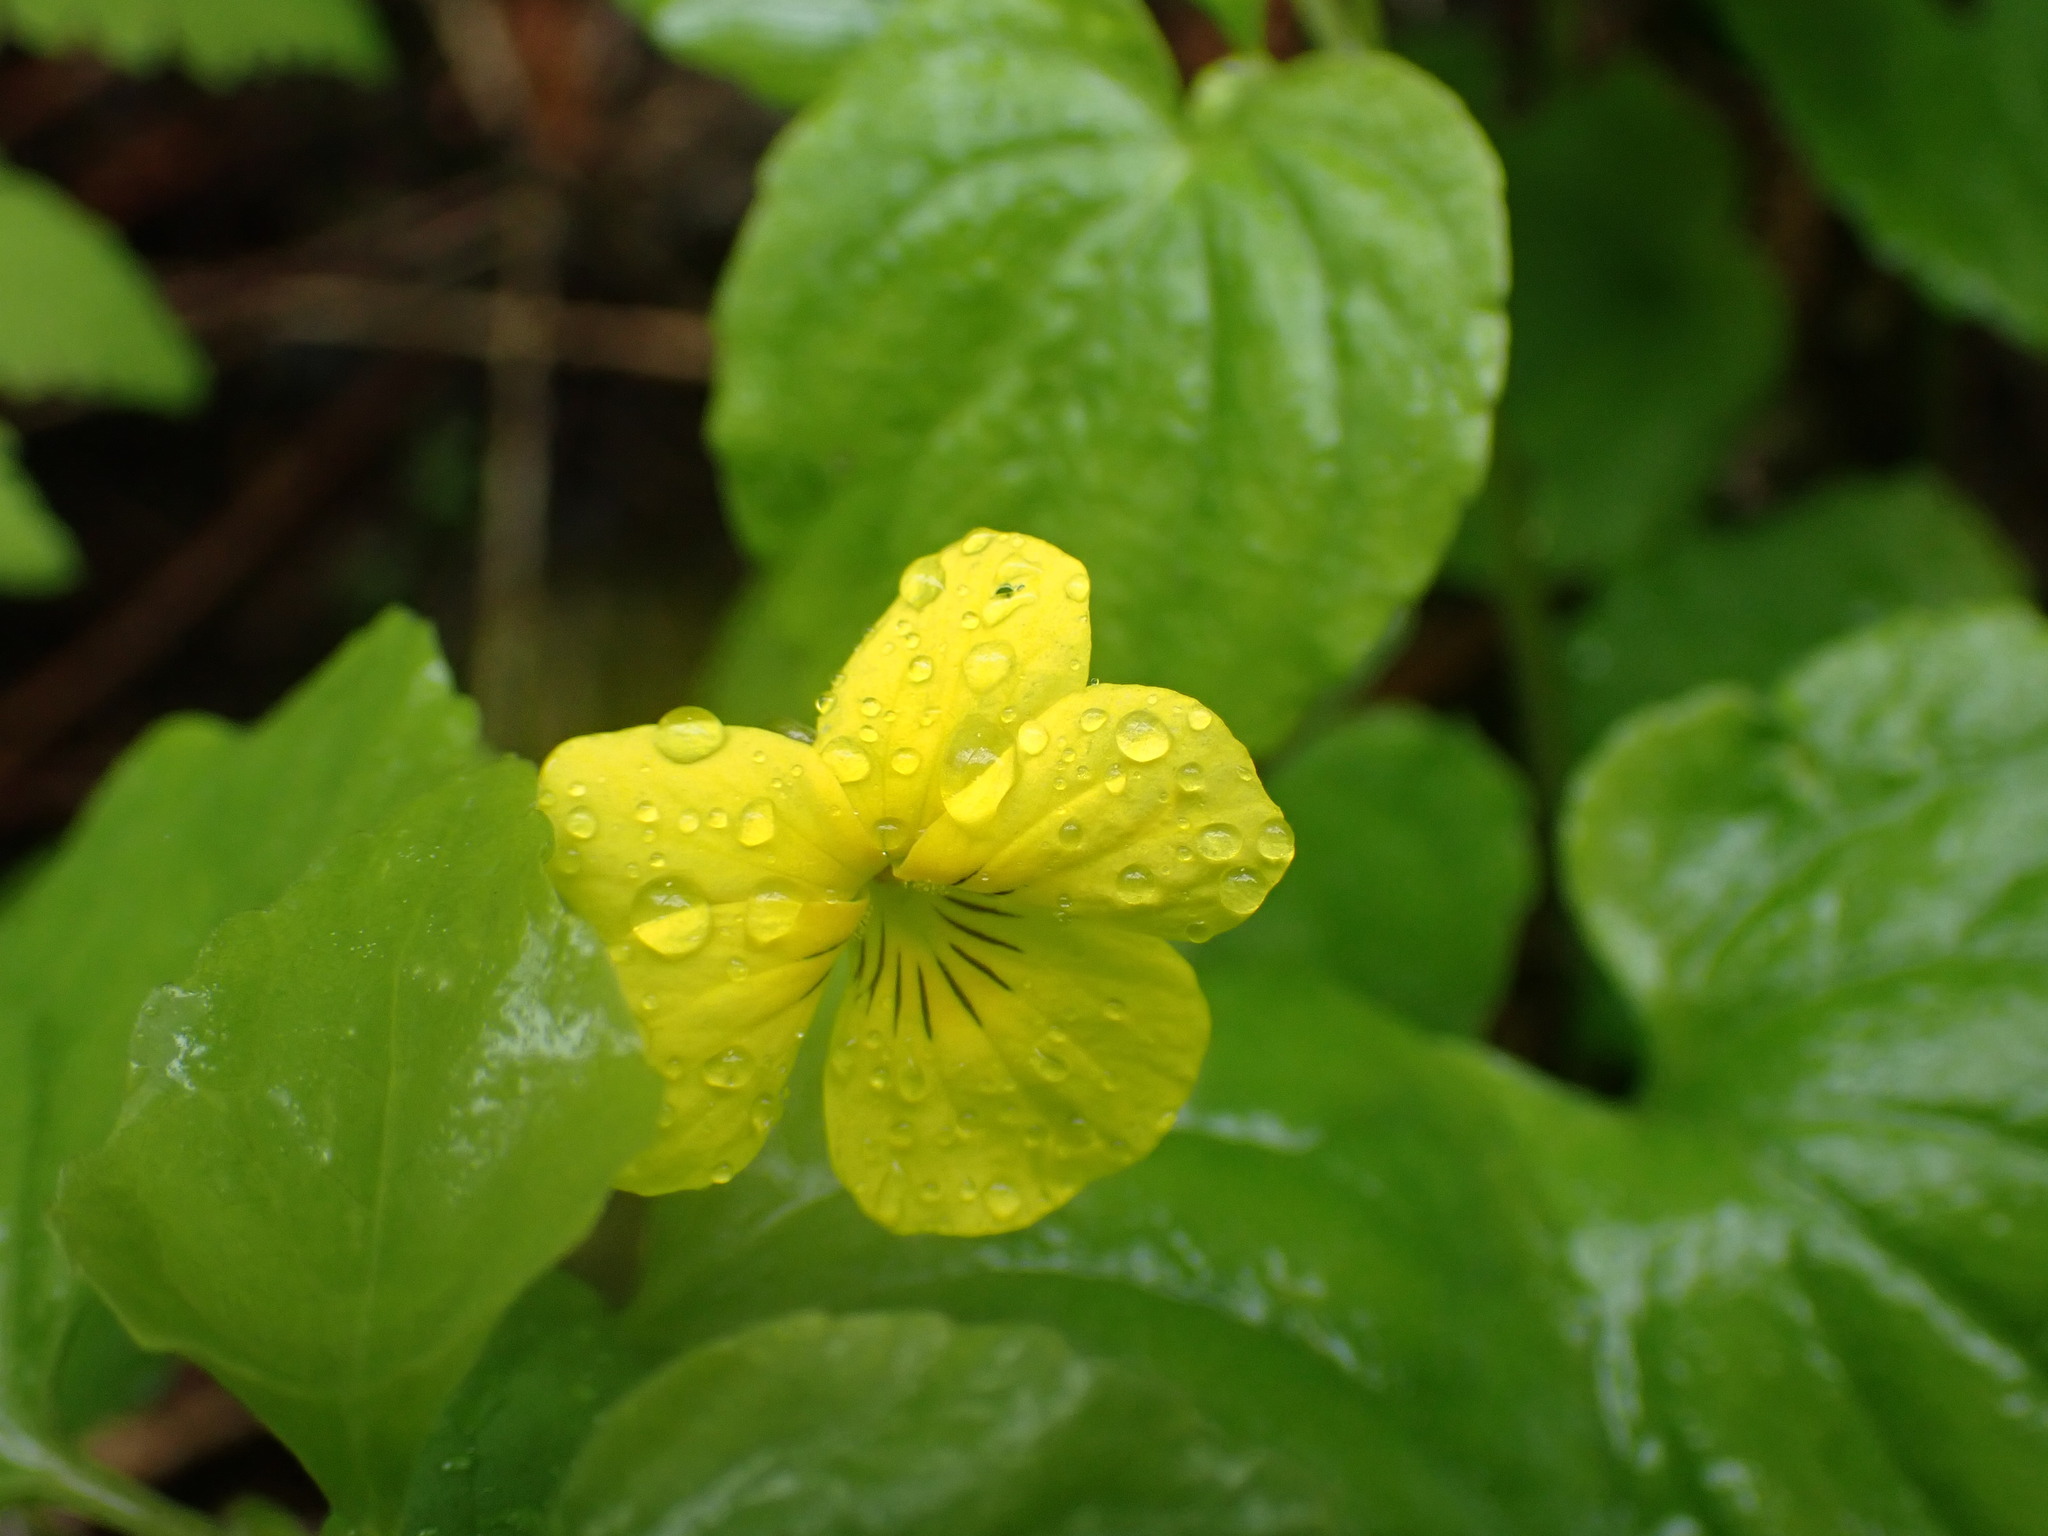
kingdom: Plantae
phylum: Tracheophyta
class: Magnoliopsida
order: Malpighiales
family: Violaceae
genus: Viola
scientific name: Viola glabella
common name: Stream violet
